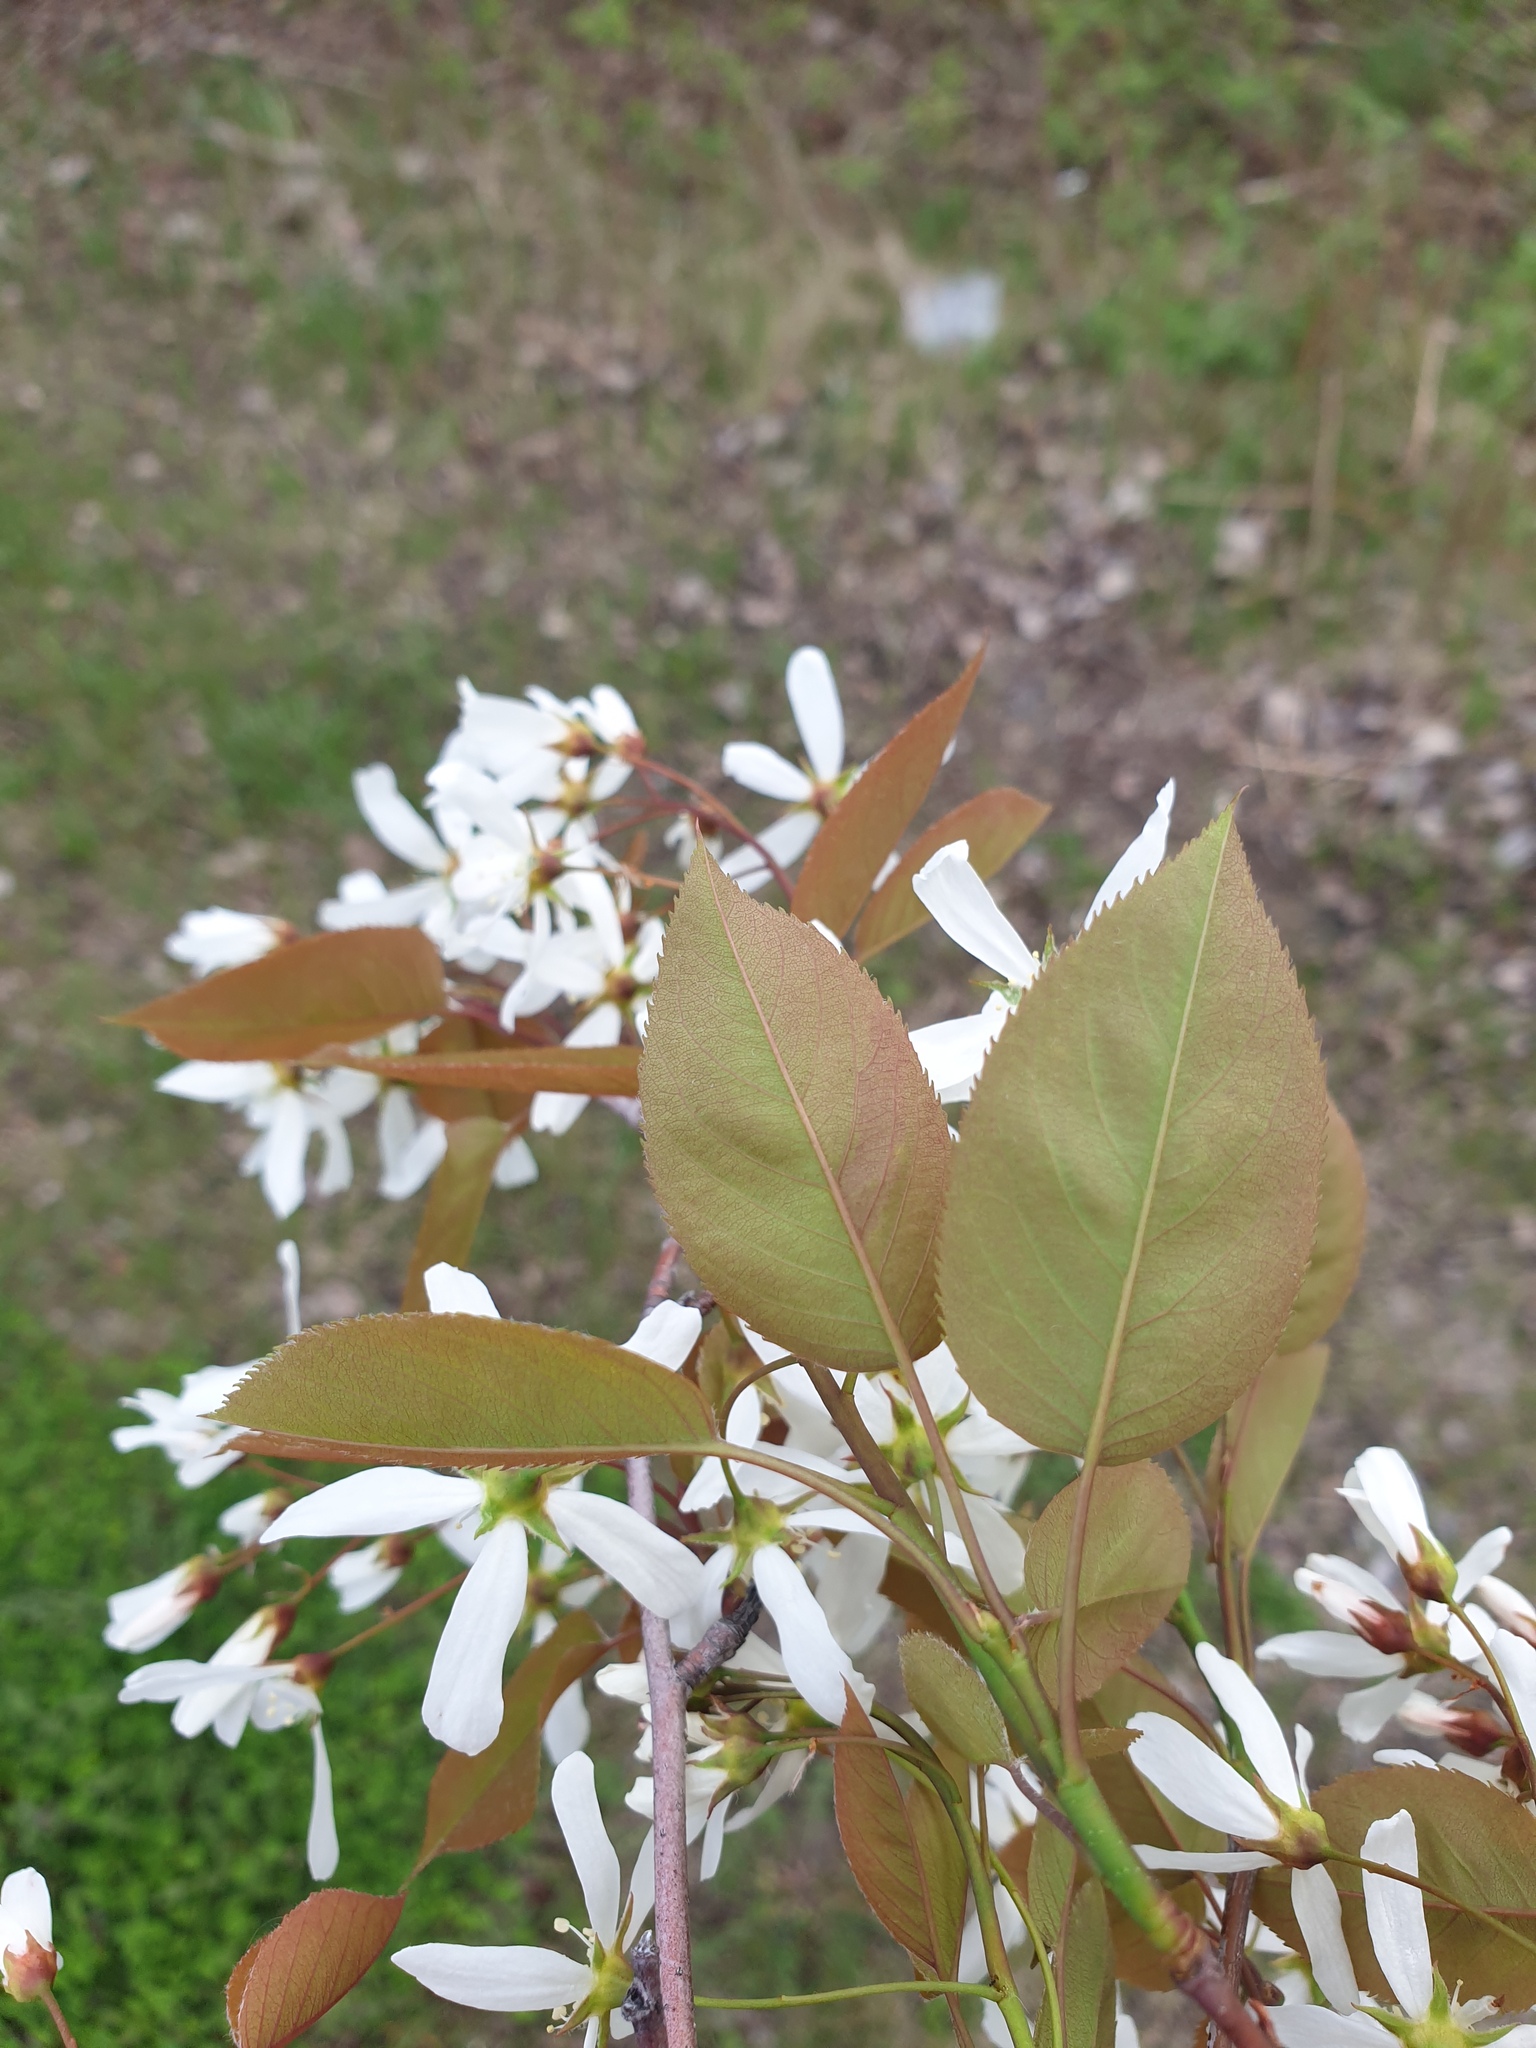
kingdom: Plantae
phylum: Tracheophyta
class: Magnoliopsida
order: Rosales
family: Rosaceae
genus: Amelanchier
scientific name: Amelanchier laevis
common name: Allegheny serviceberry
